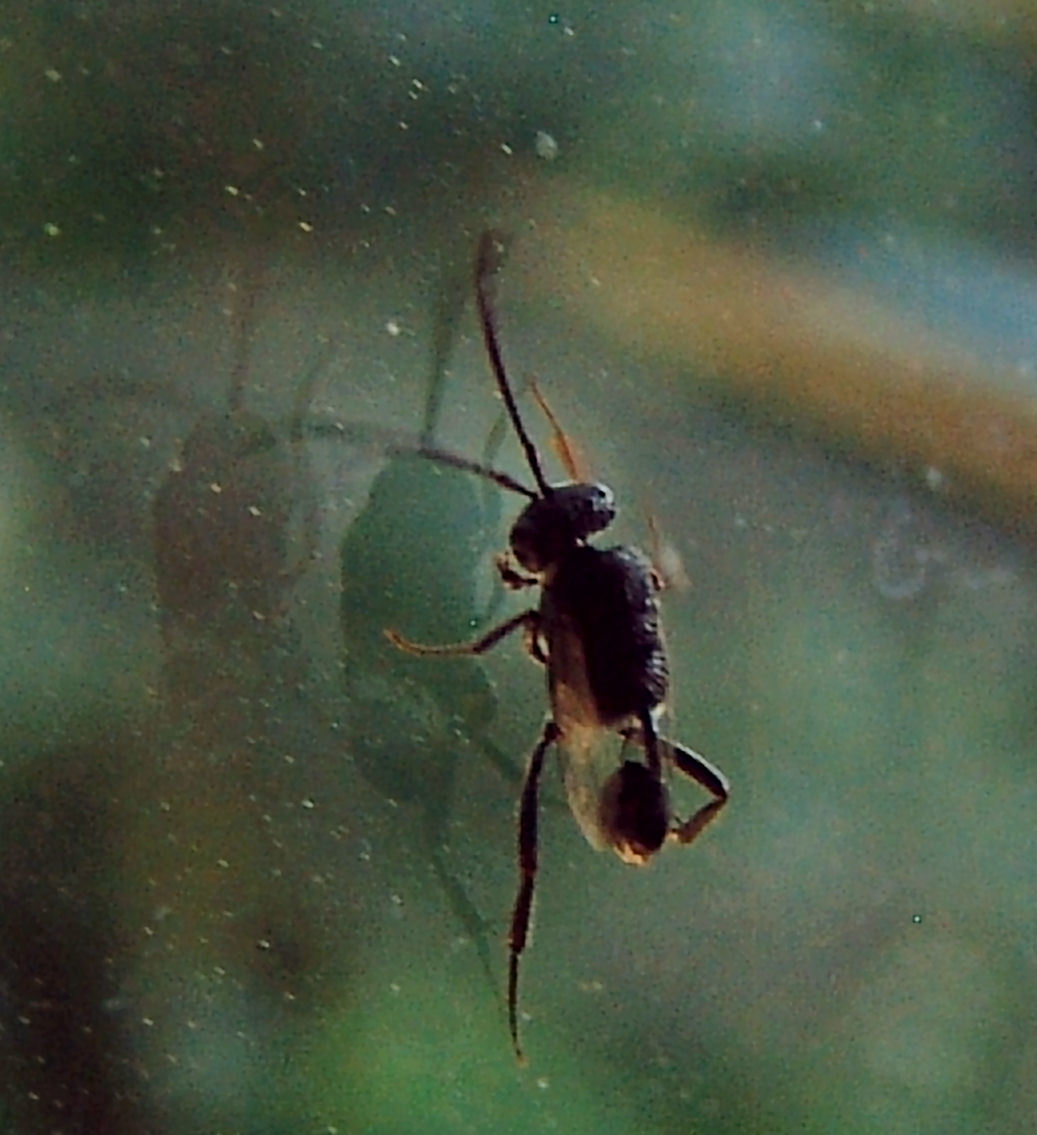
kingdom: Animalia
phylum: Arthropoda
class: Insecta
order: Hymenoptera
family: Evaniidae
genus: Evania
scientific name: Evania appendigaster
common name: Ensign wasp
